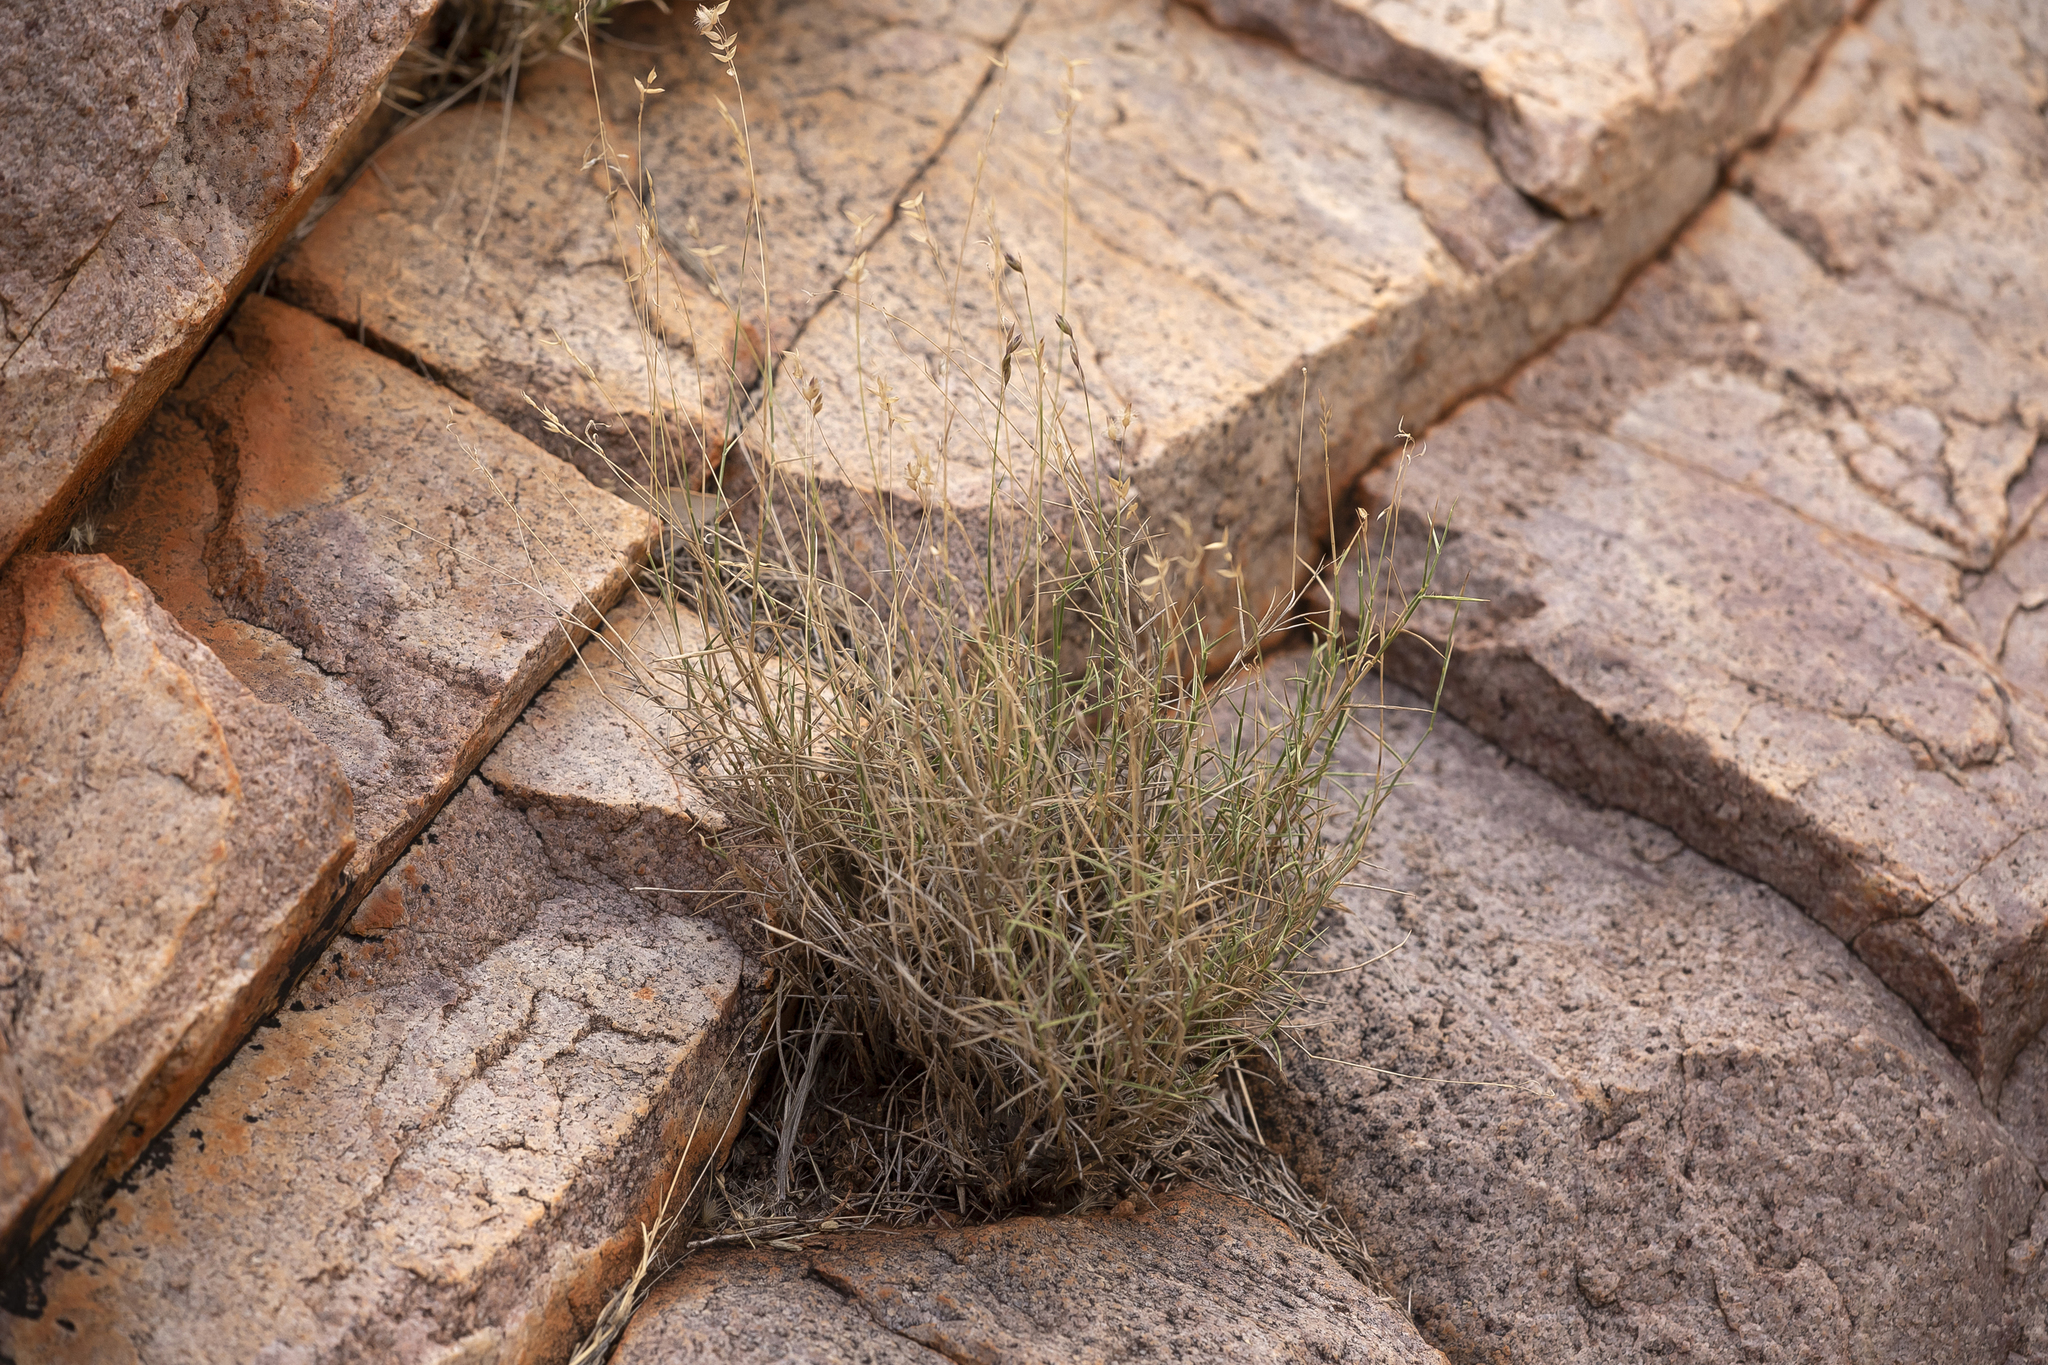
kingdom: Plantae
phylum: Tracheophyta
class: Liliopsida
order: Poales
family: Poaceae
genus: Eriachne
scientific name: Eriachne mucronata
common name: Mountain wanderrie grass
